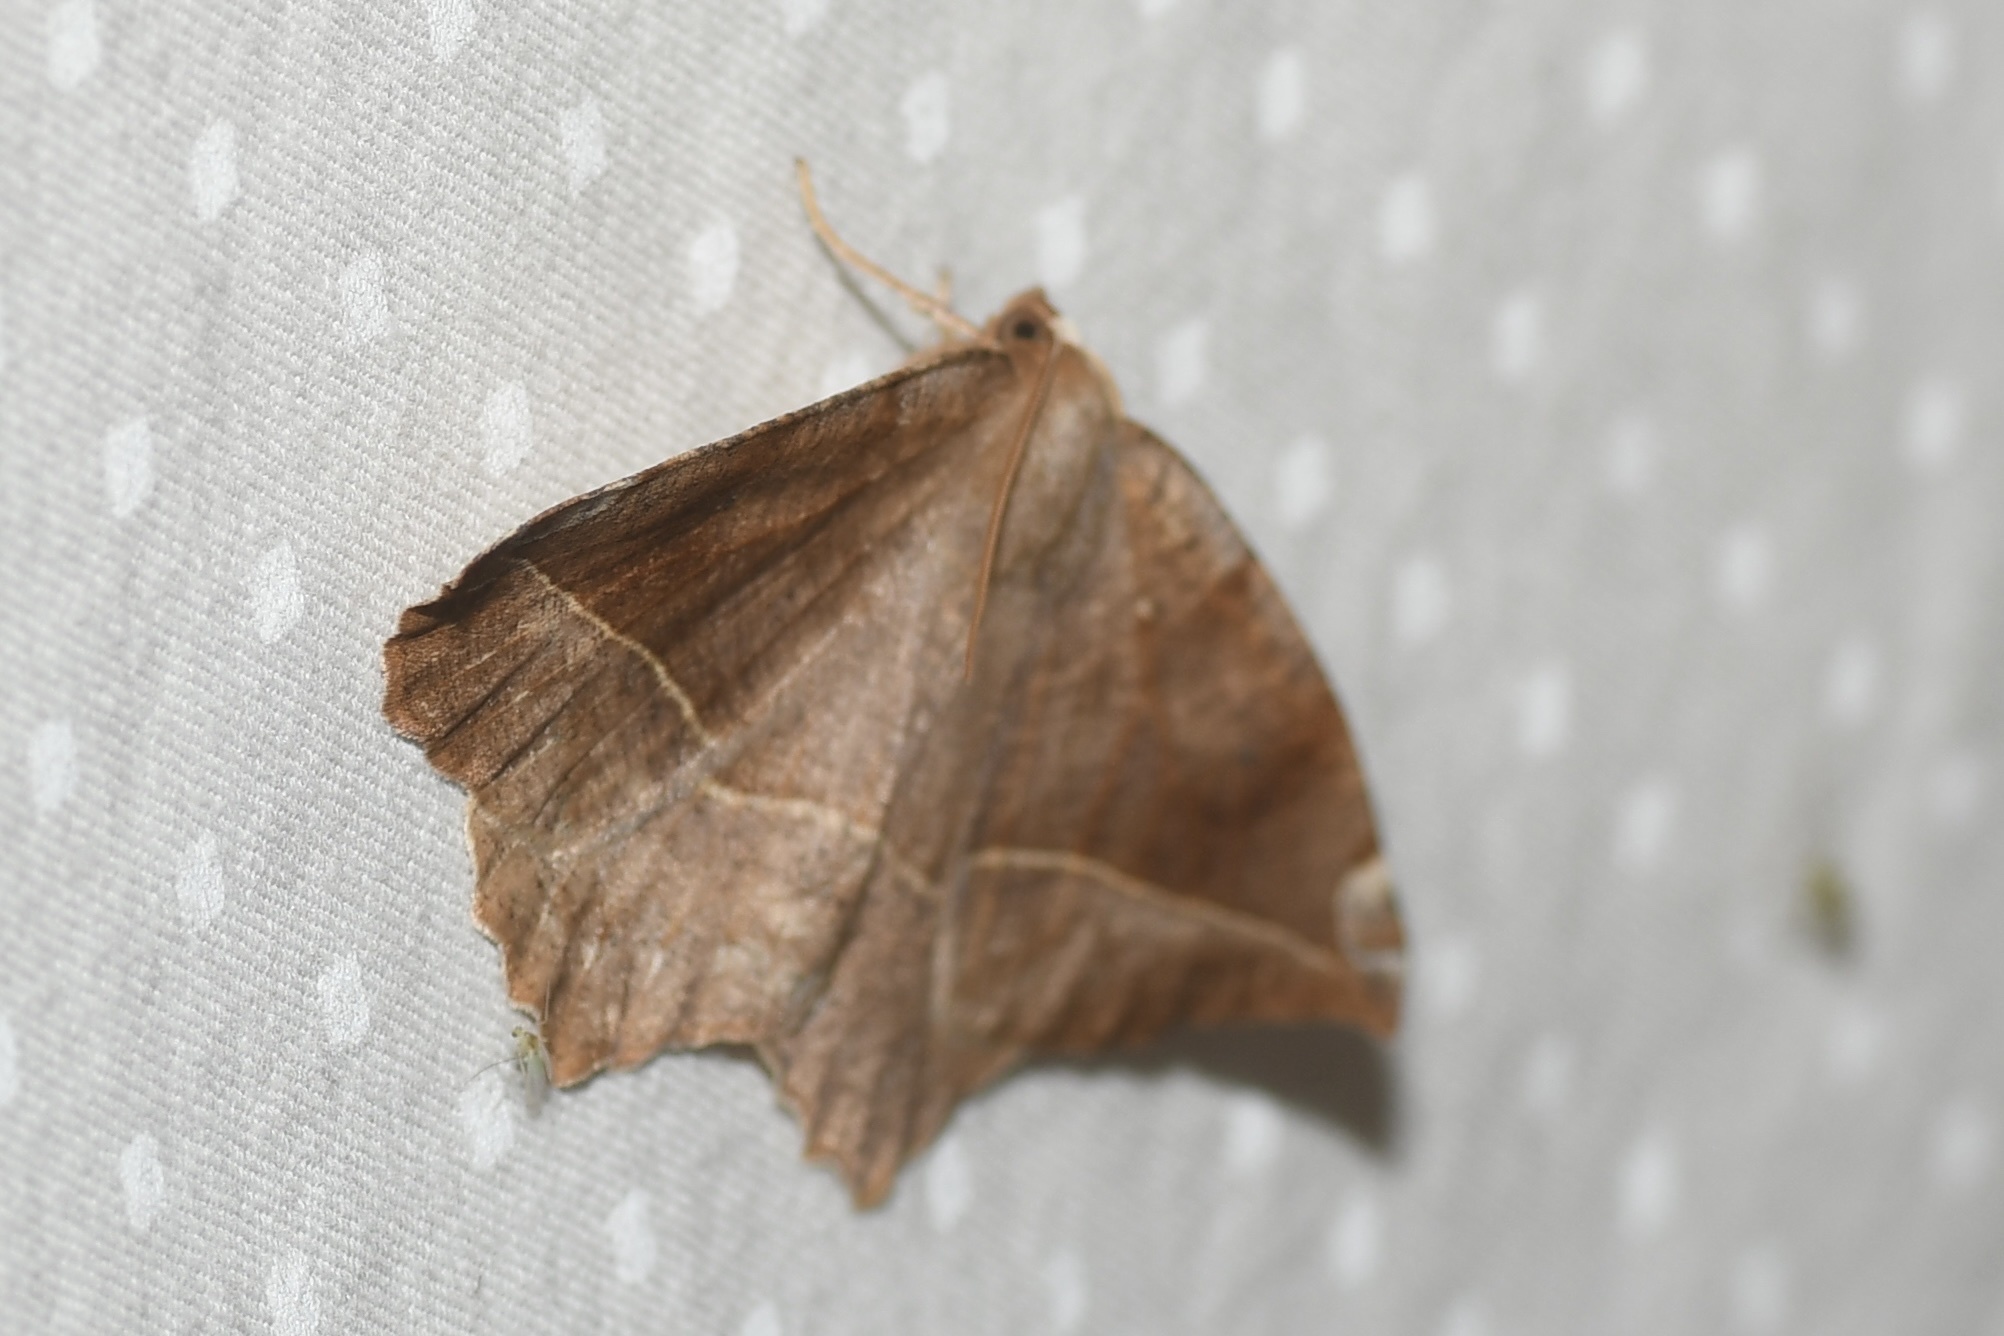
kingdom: Animalia
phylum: Arthropoda
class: Insecta
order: Lepidoptera
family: Geometridae
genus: Eutrapela
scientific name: Eutrapela clemataria
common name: Curved-toothed geometer
